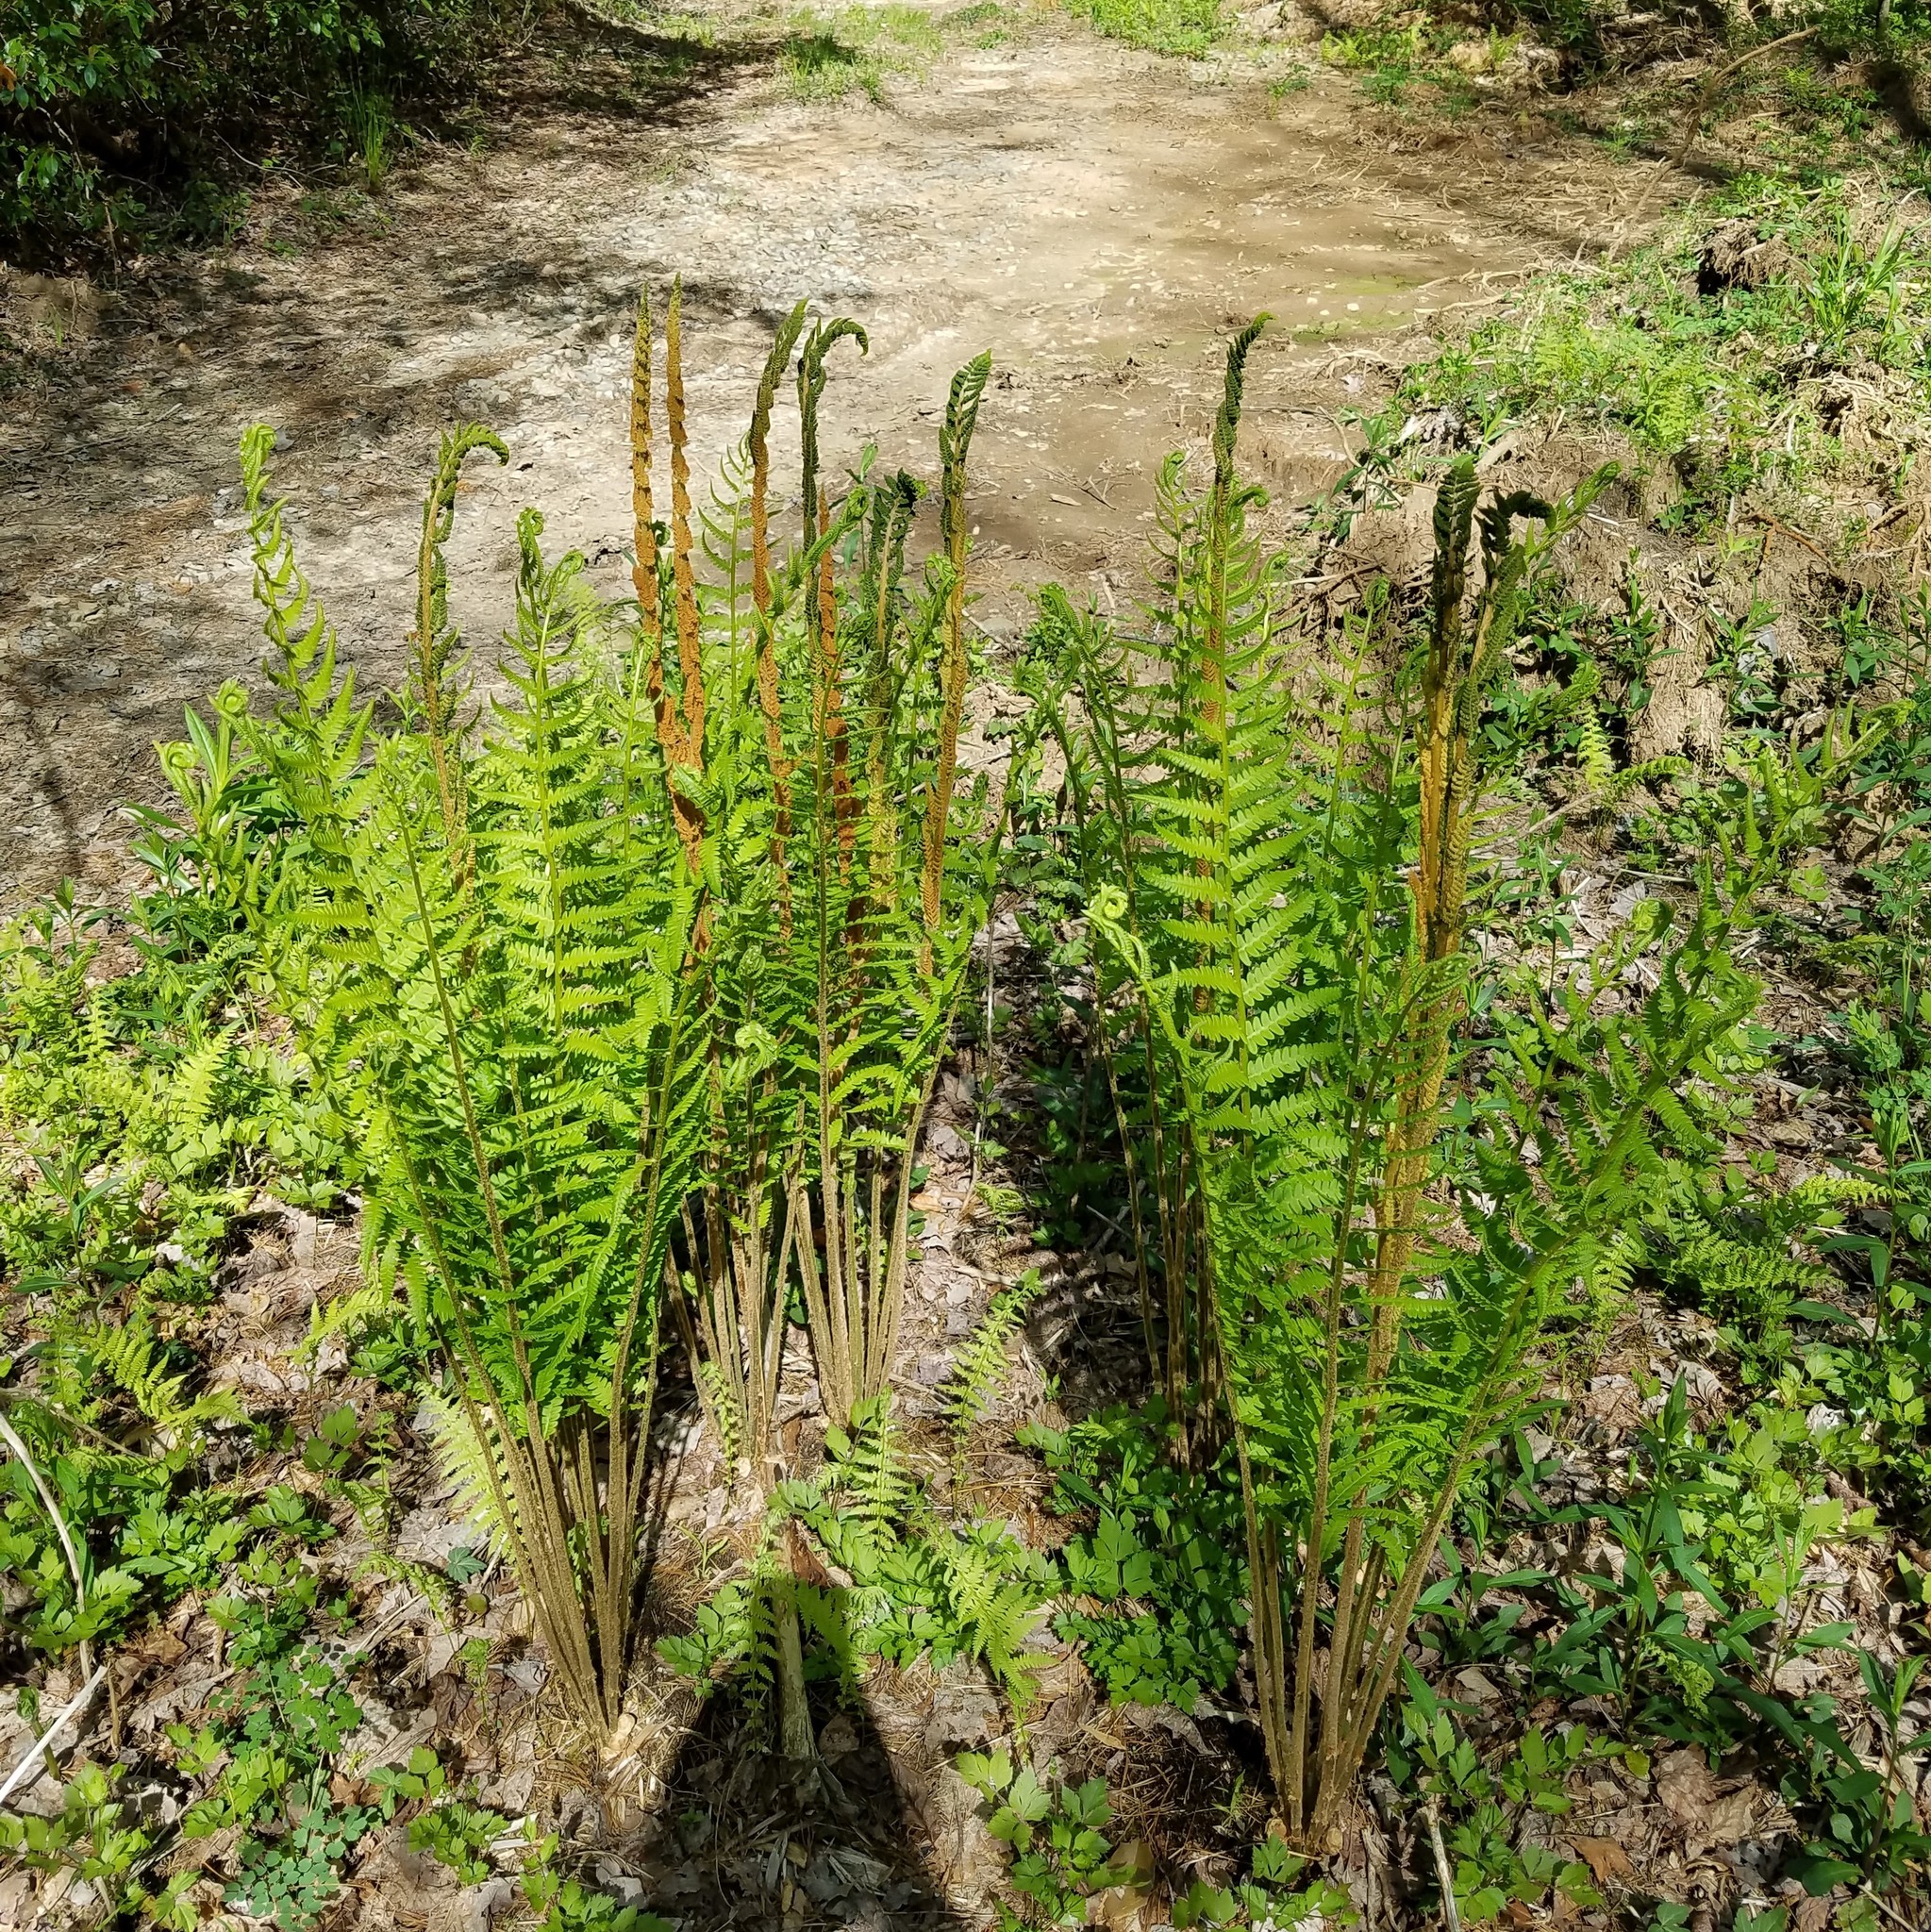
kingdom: Plantae
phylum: Tracheophyta
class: Polypodiopsida
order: Osmundales
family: Osmundaceae
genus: Osmundastrum
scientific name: Osmundastrum cinnamomeum
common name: Cinnamon fern
